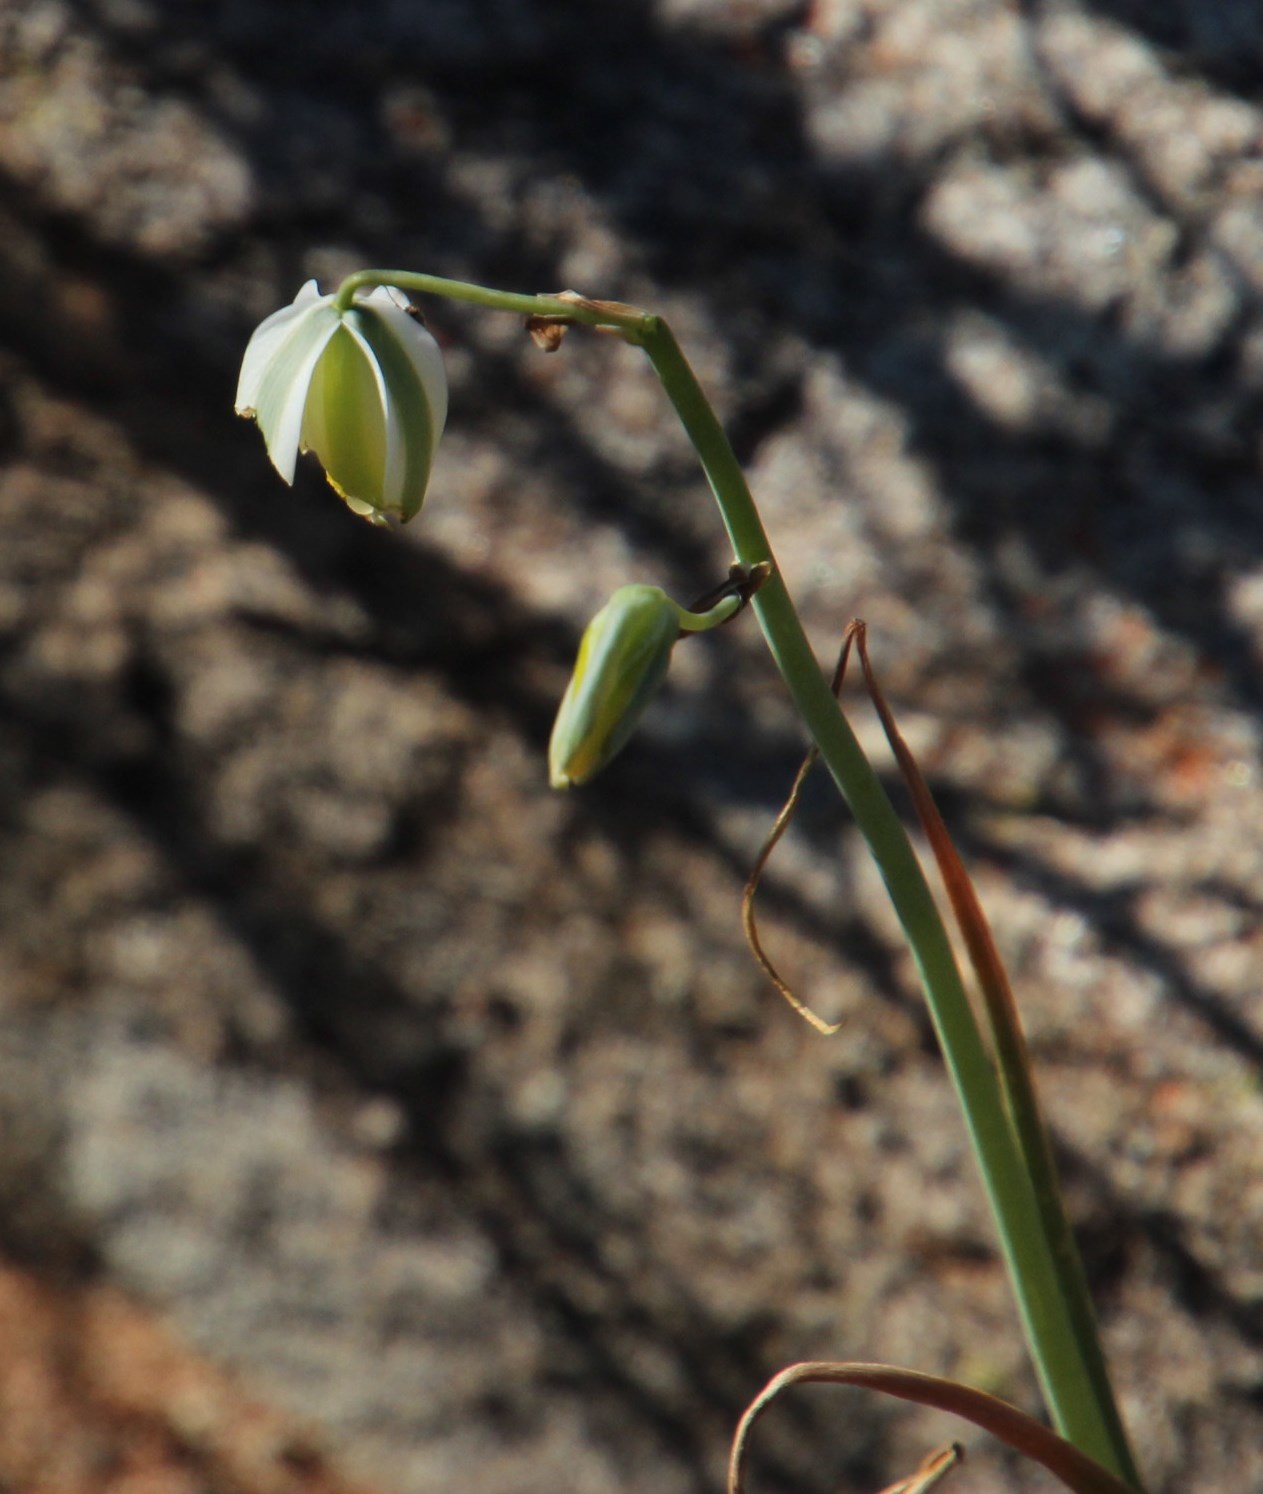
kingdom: Plantae
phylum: Tracheophyta
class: Liliopsida
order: Asparagales
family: Asparagaceae
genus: Albuca
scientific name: Albuca leucantha
